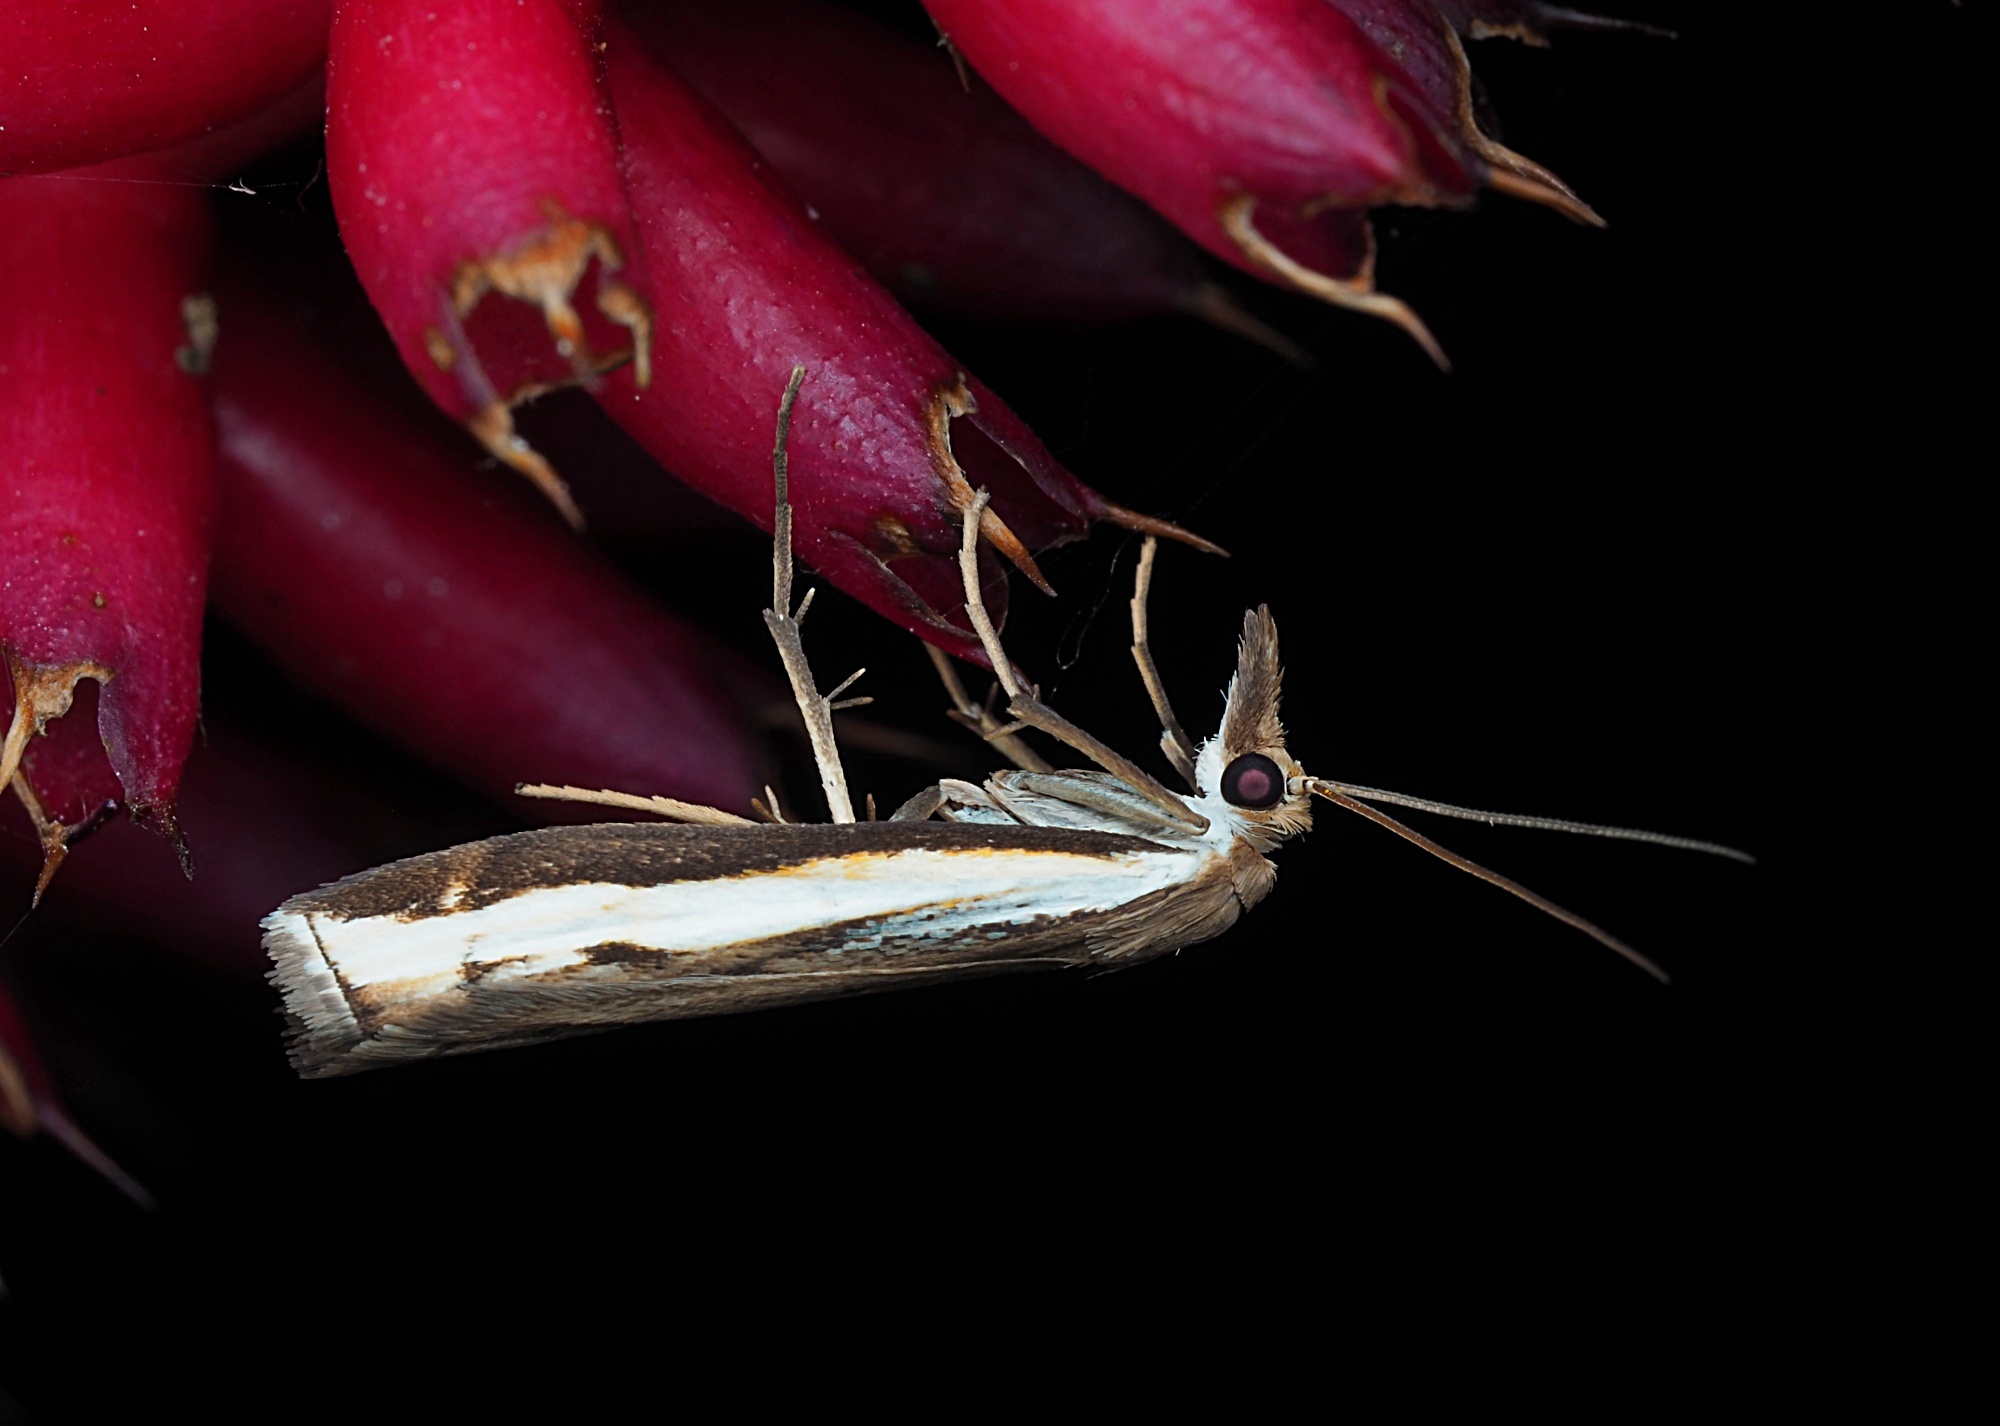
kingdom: Animalia
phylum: Arthropoda
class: Insecta
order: Lepidoptera
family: Crambidae
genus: Orocrambus
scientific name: Orocrambus flexuosellus
